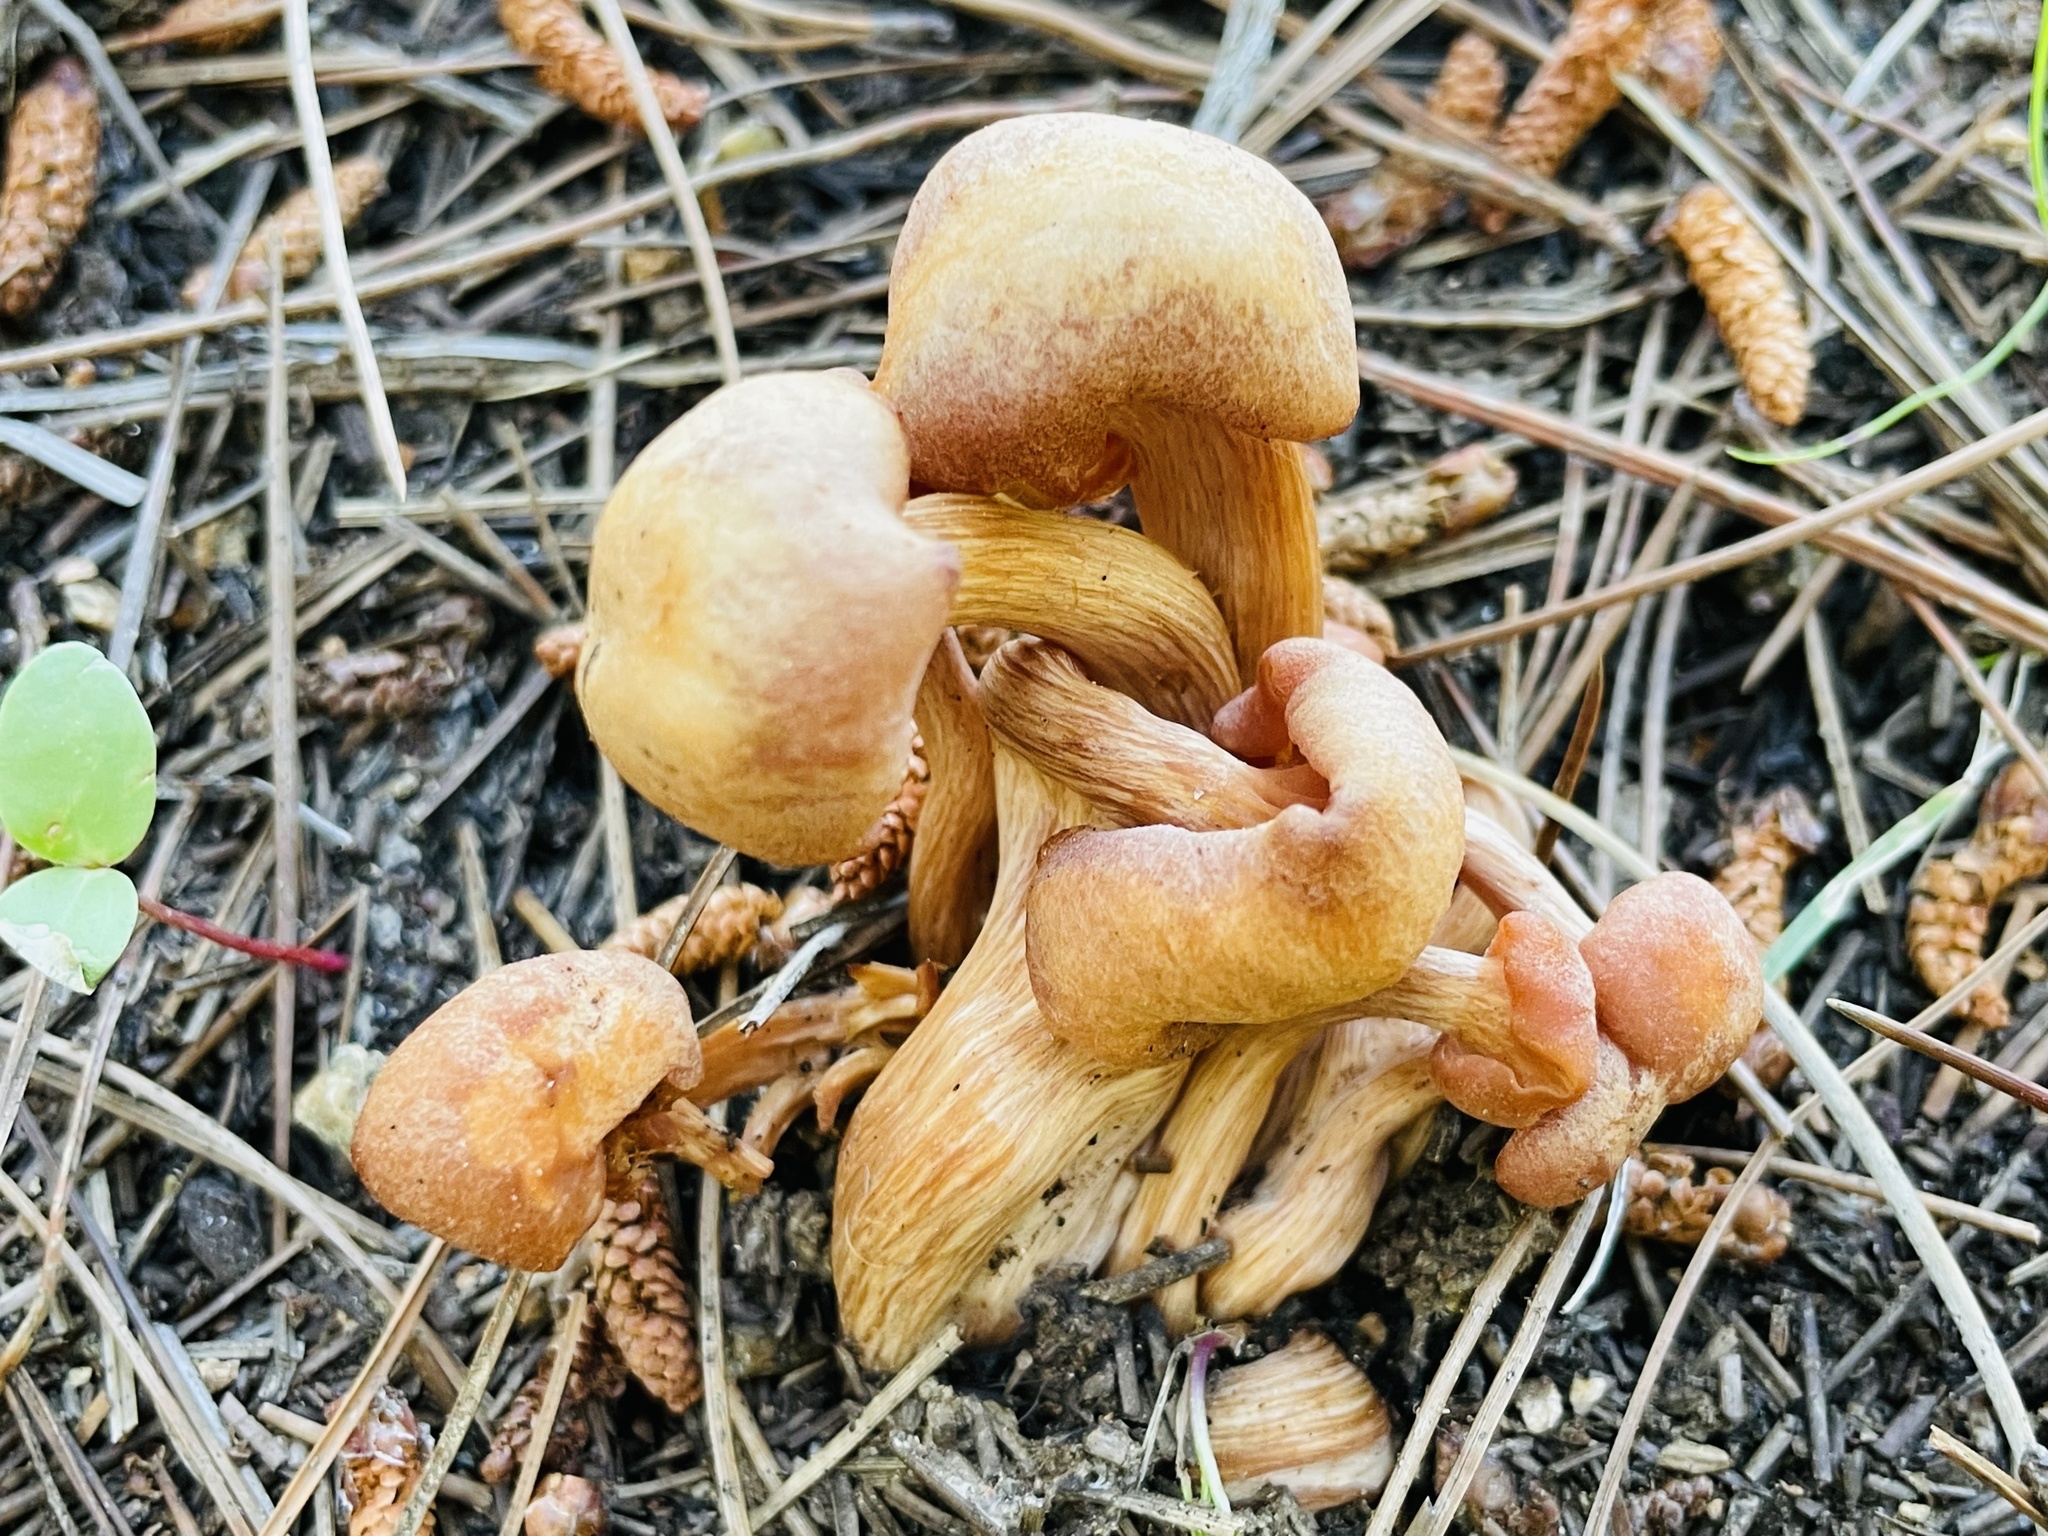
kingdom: Fungi
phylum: Basidiomycota
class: Agaricomycetes
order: Agaricales
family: Hymenogastraceae
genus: Gymnopilus
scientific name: Gymnopilus junonius
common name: Spectacular rustgill
